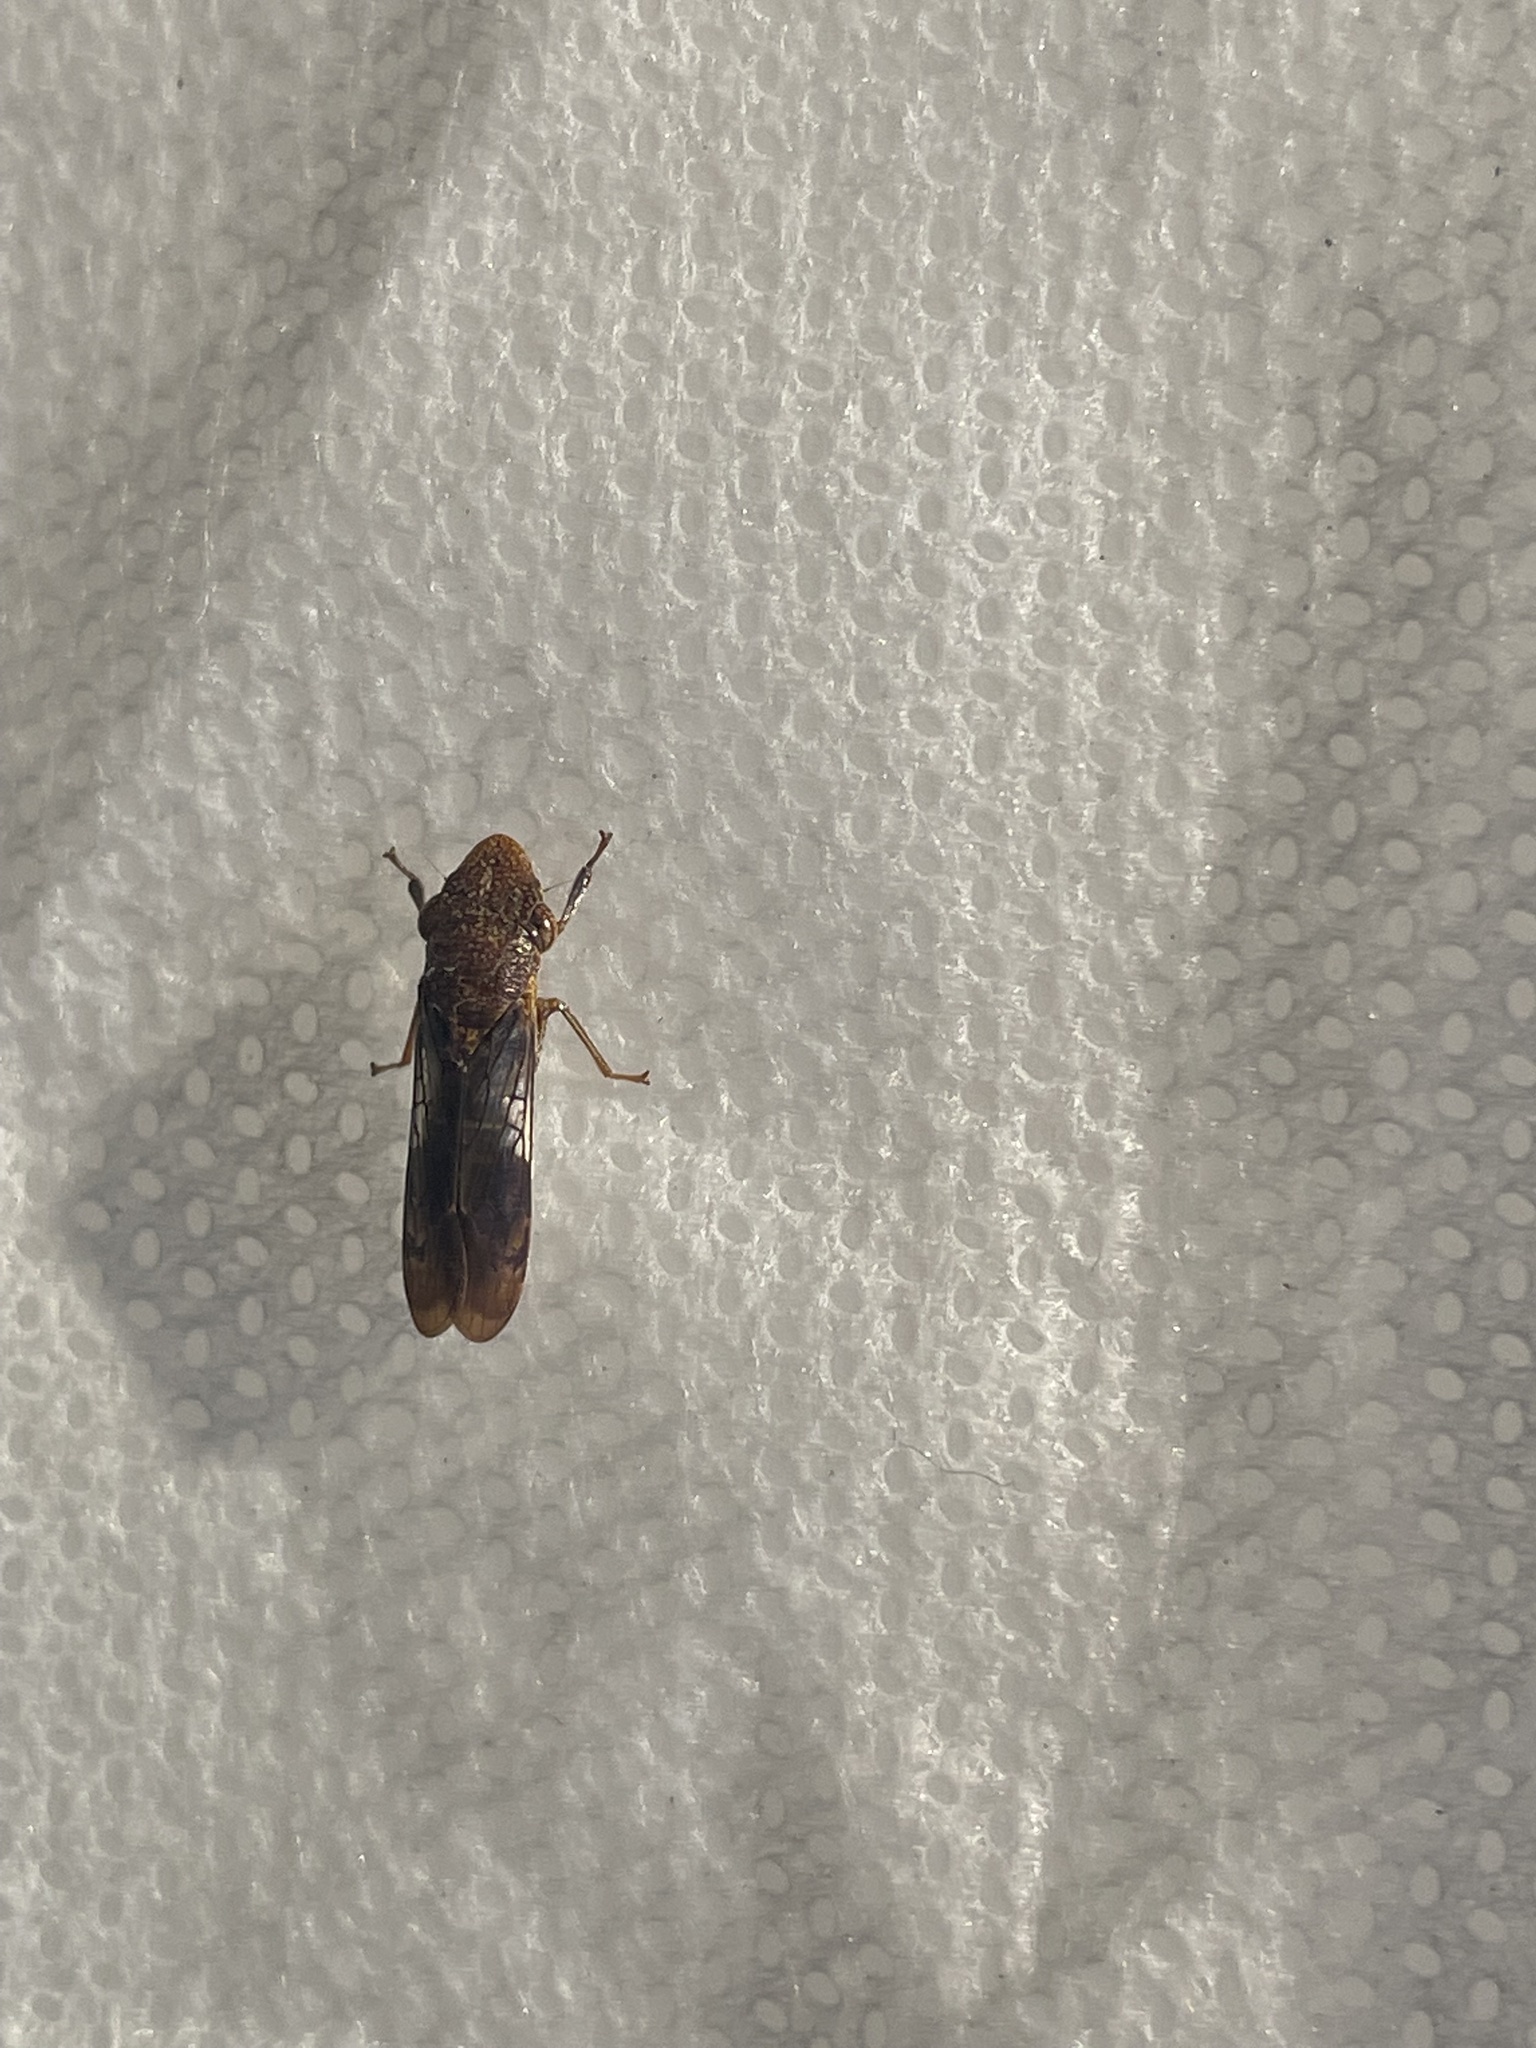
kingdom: Animalia
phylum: Arthropoda
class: Insecta
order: Hemiptera
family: Cicadellidae
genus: Homalodisca
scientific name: Homalodisca vitripennis
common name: Glassy-winged sharpshooter
